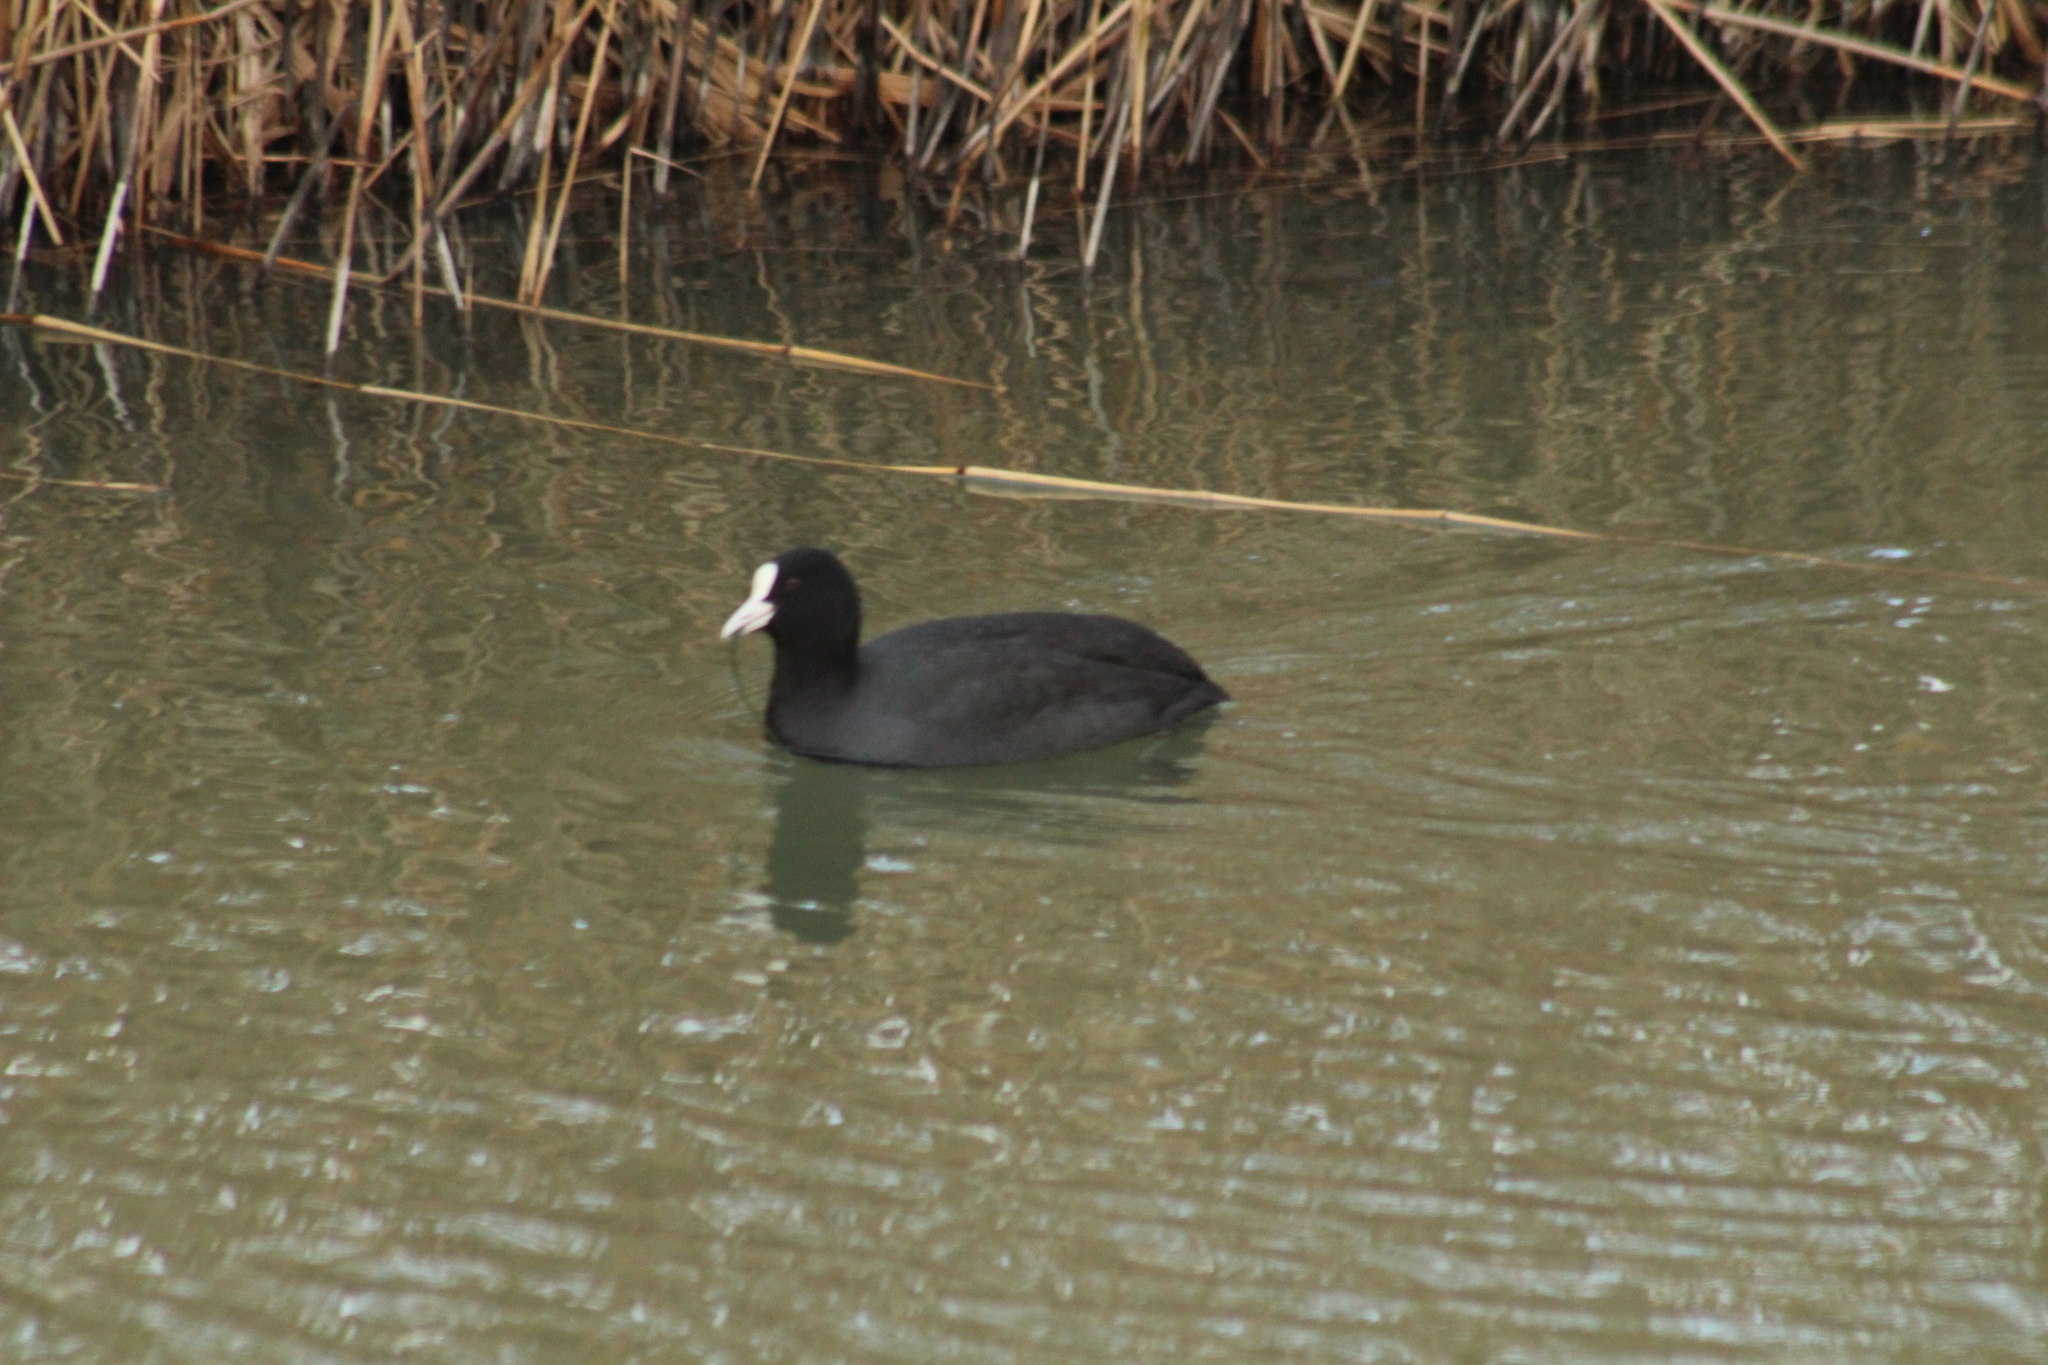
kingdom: Animalia
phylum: Chordata
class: Aves
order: Gruiformes
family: Rallidae
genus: Fulica
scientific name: Fulica atra
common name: Eurasian coot
